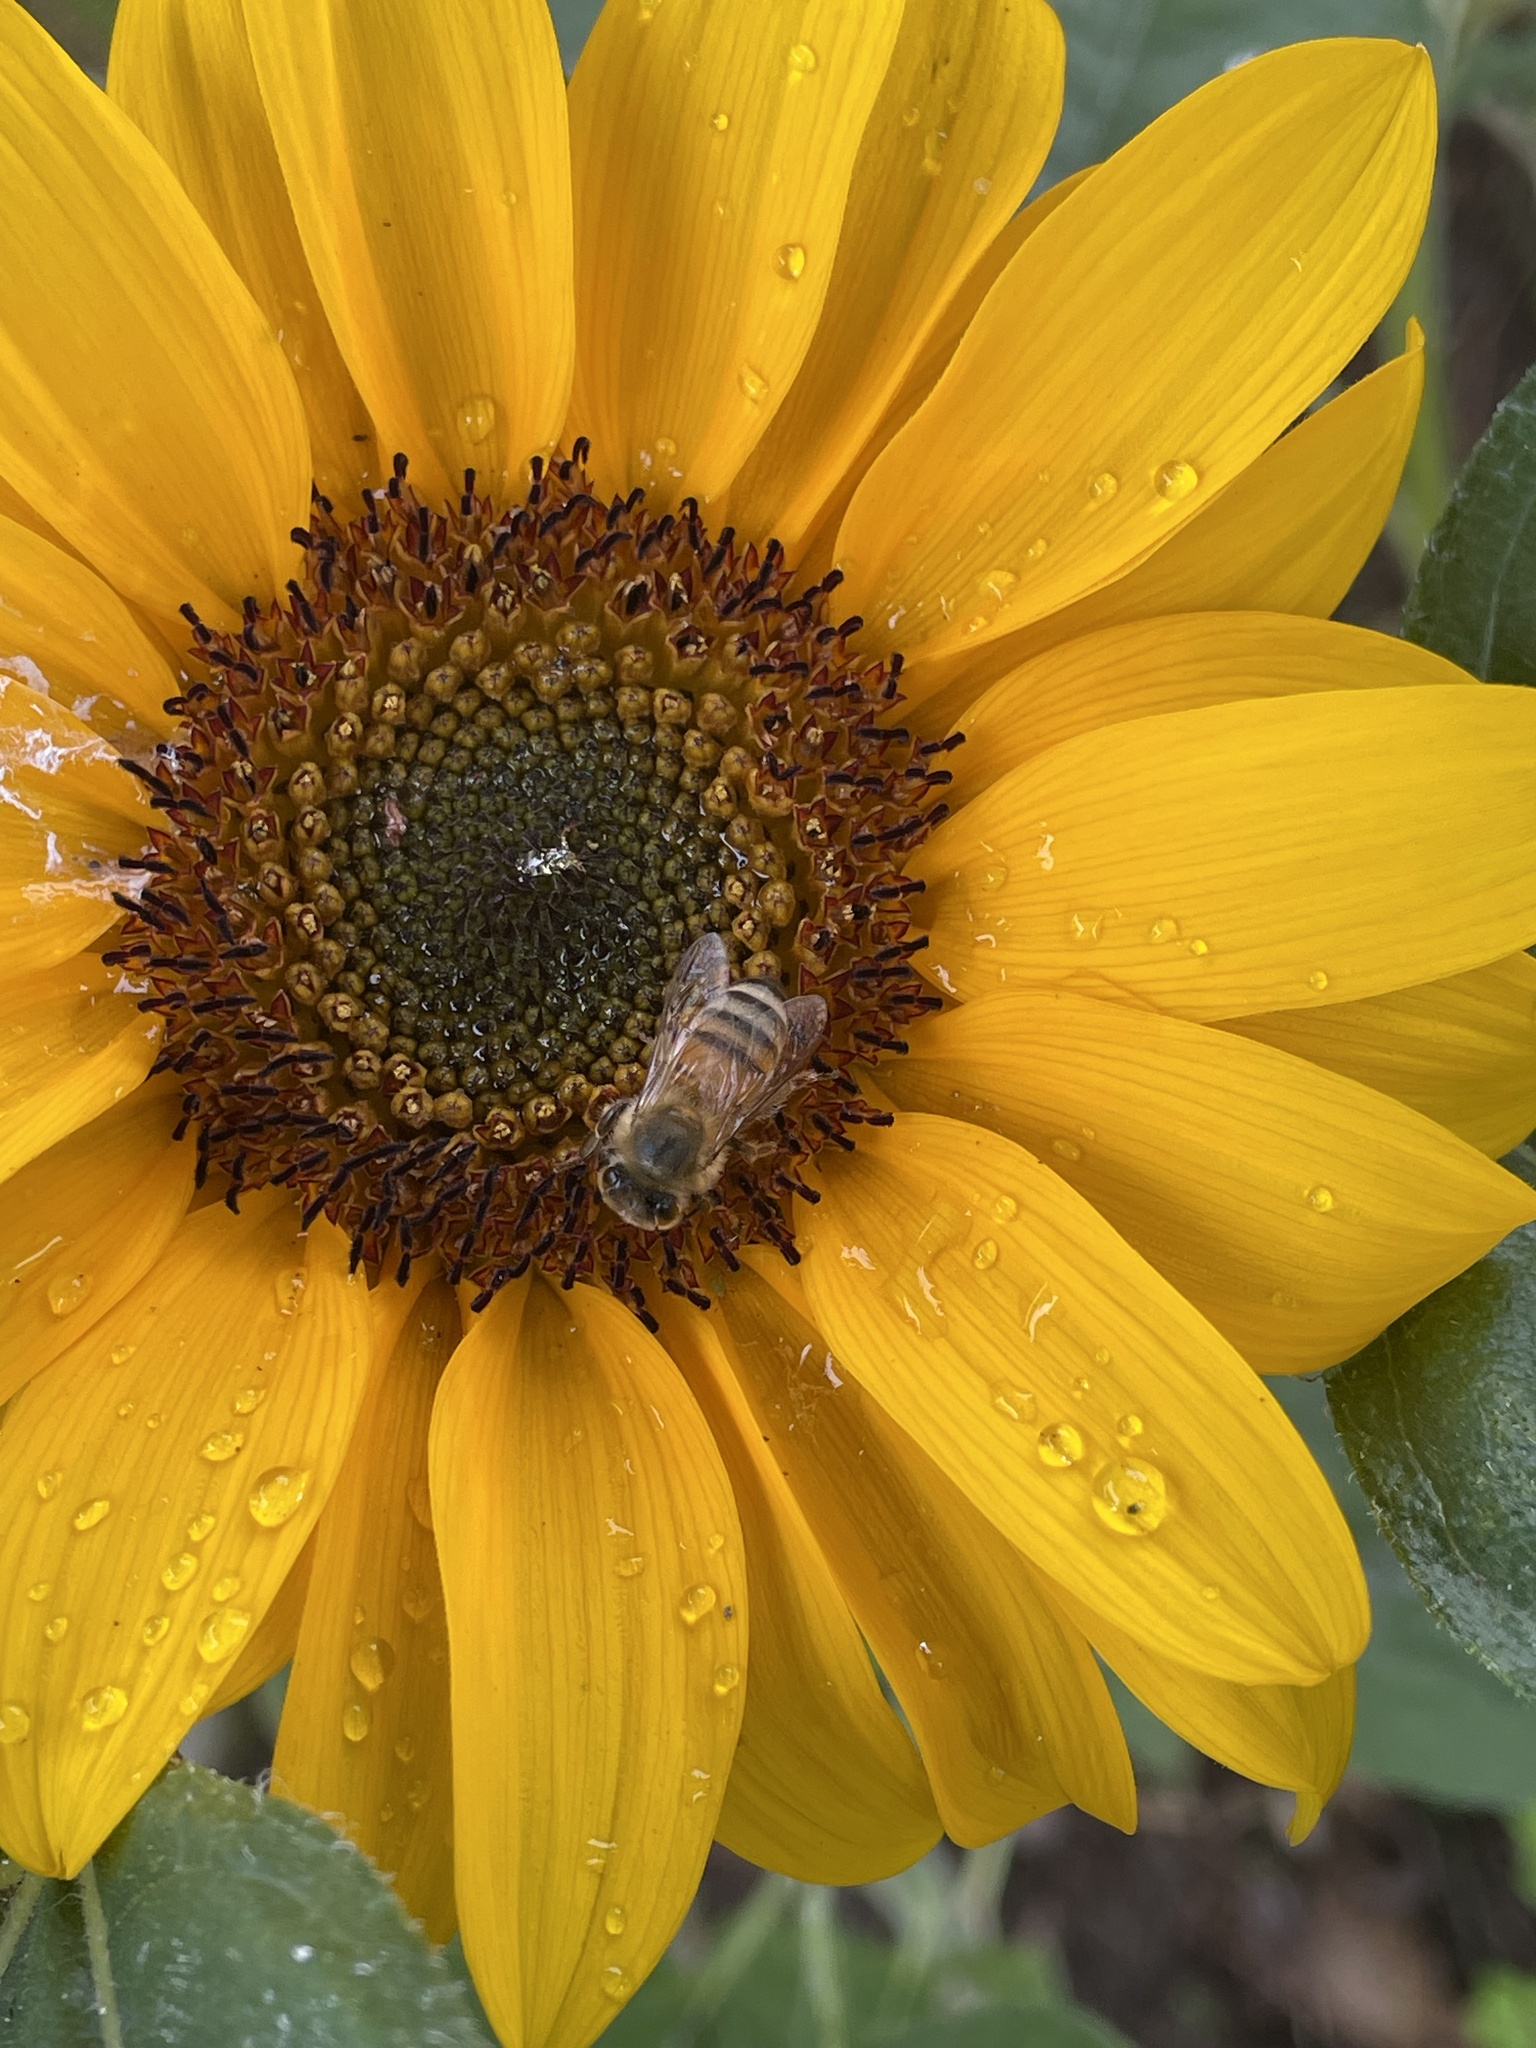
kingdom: Animalia
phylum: Arthropoda
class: Insecta
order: Hymenoptera
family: Apidae
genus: Apis
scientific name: Apis mellifera
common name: Honey bee
